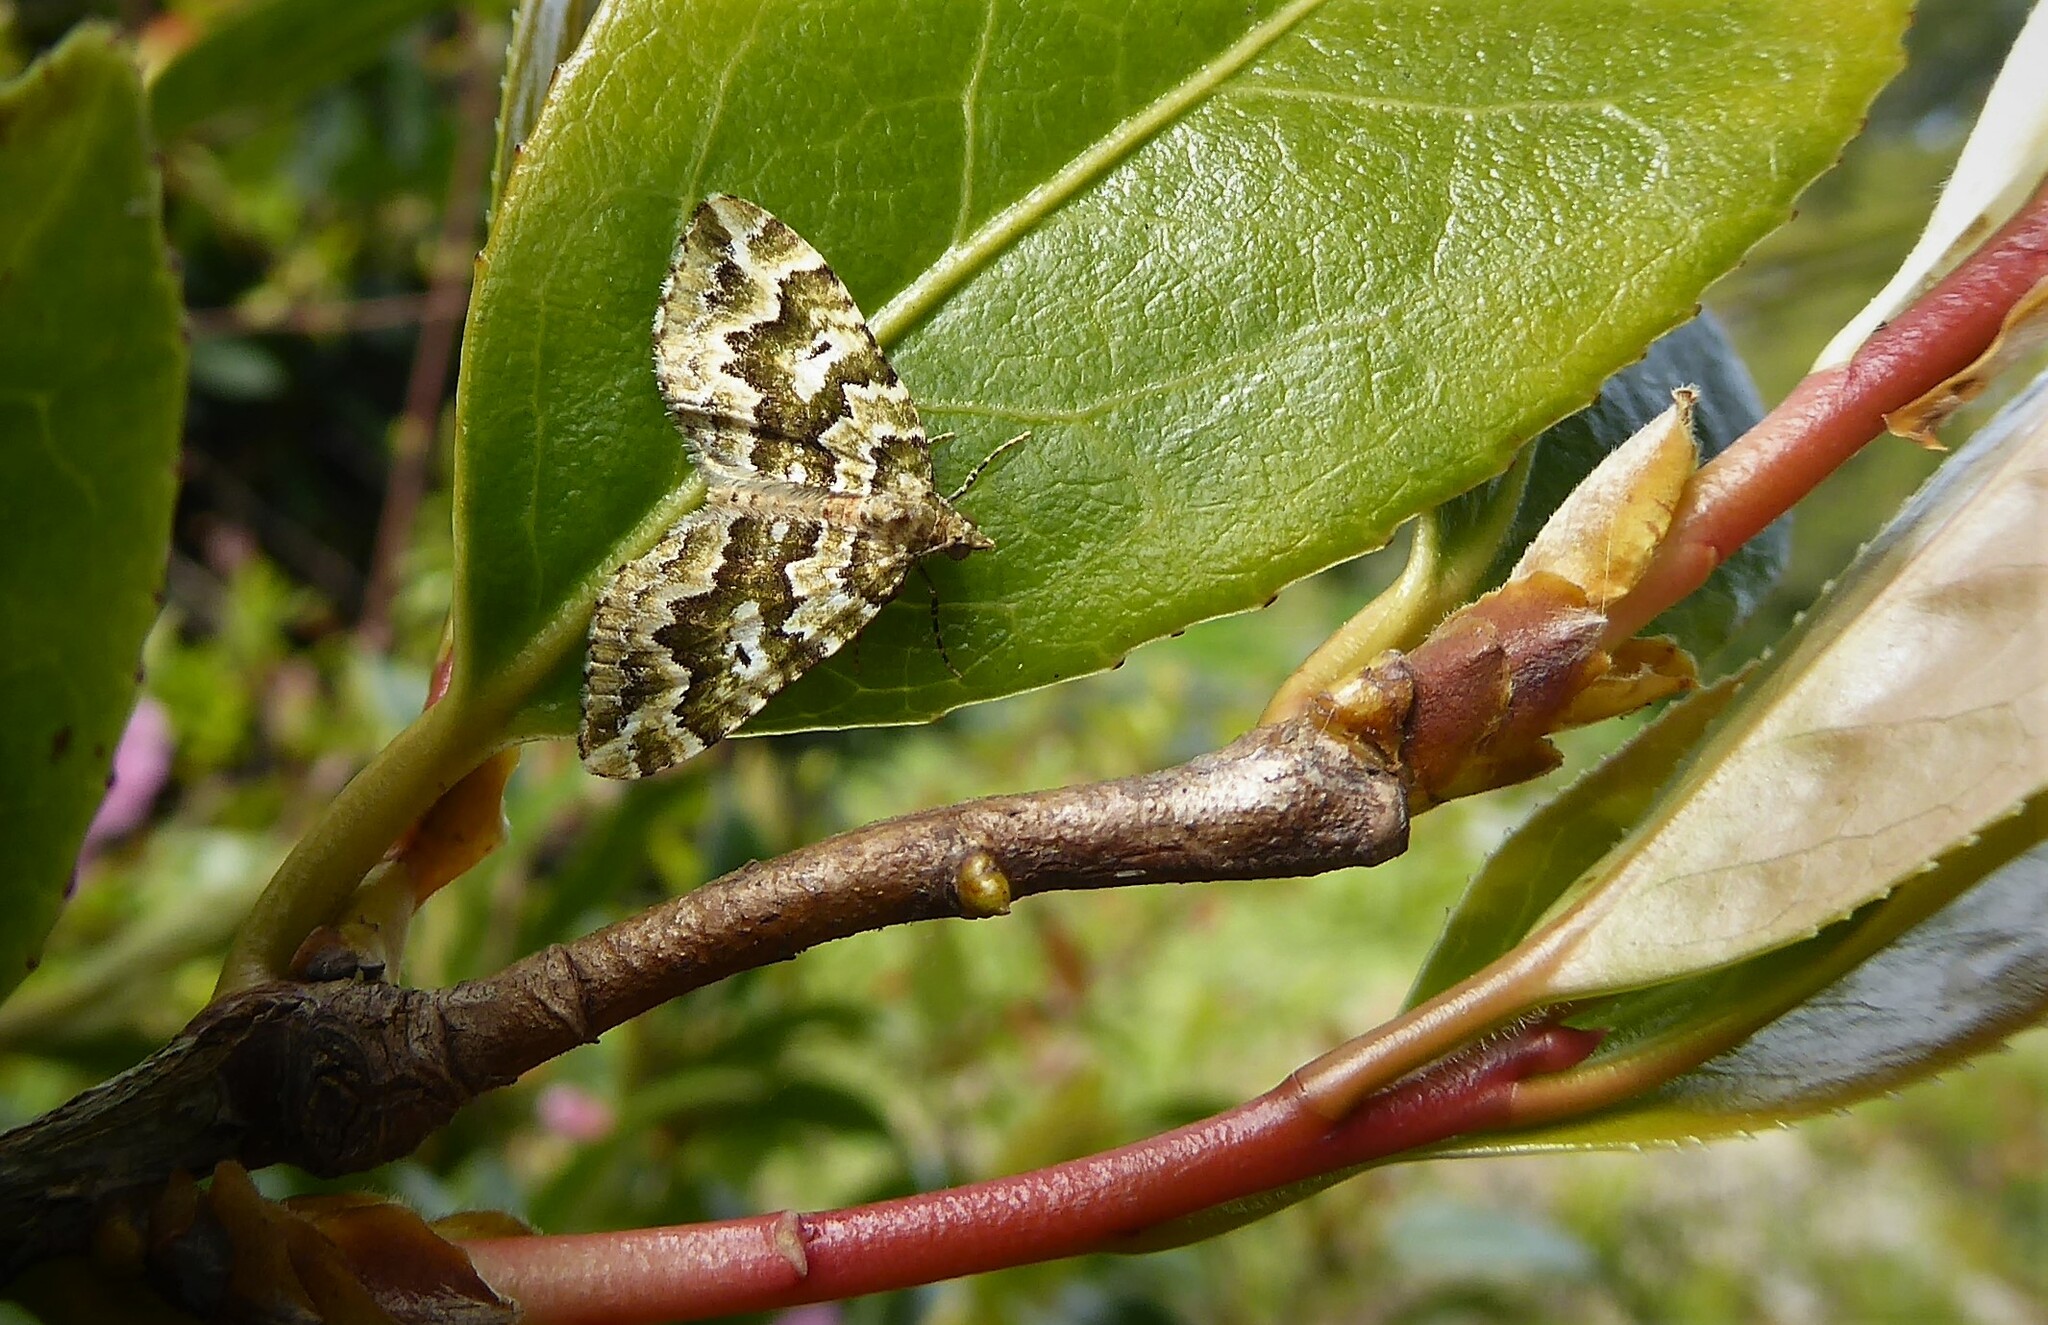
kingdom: Animalia
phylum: Arthropoda
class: Insecta
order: Lepidoptera
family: Geometridae
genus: Asaphodes
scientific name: Asaphodes beata
